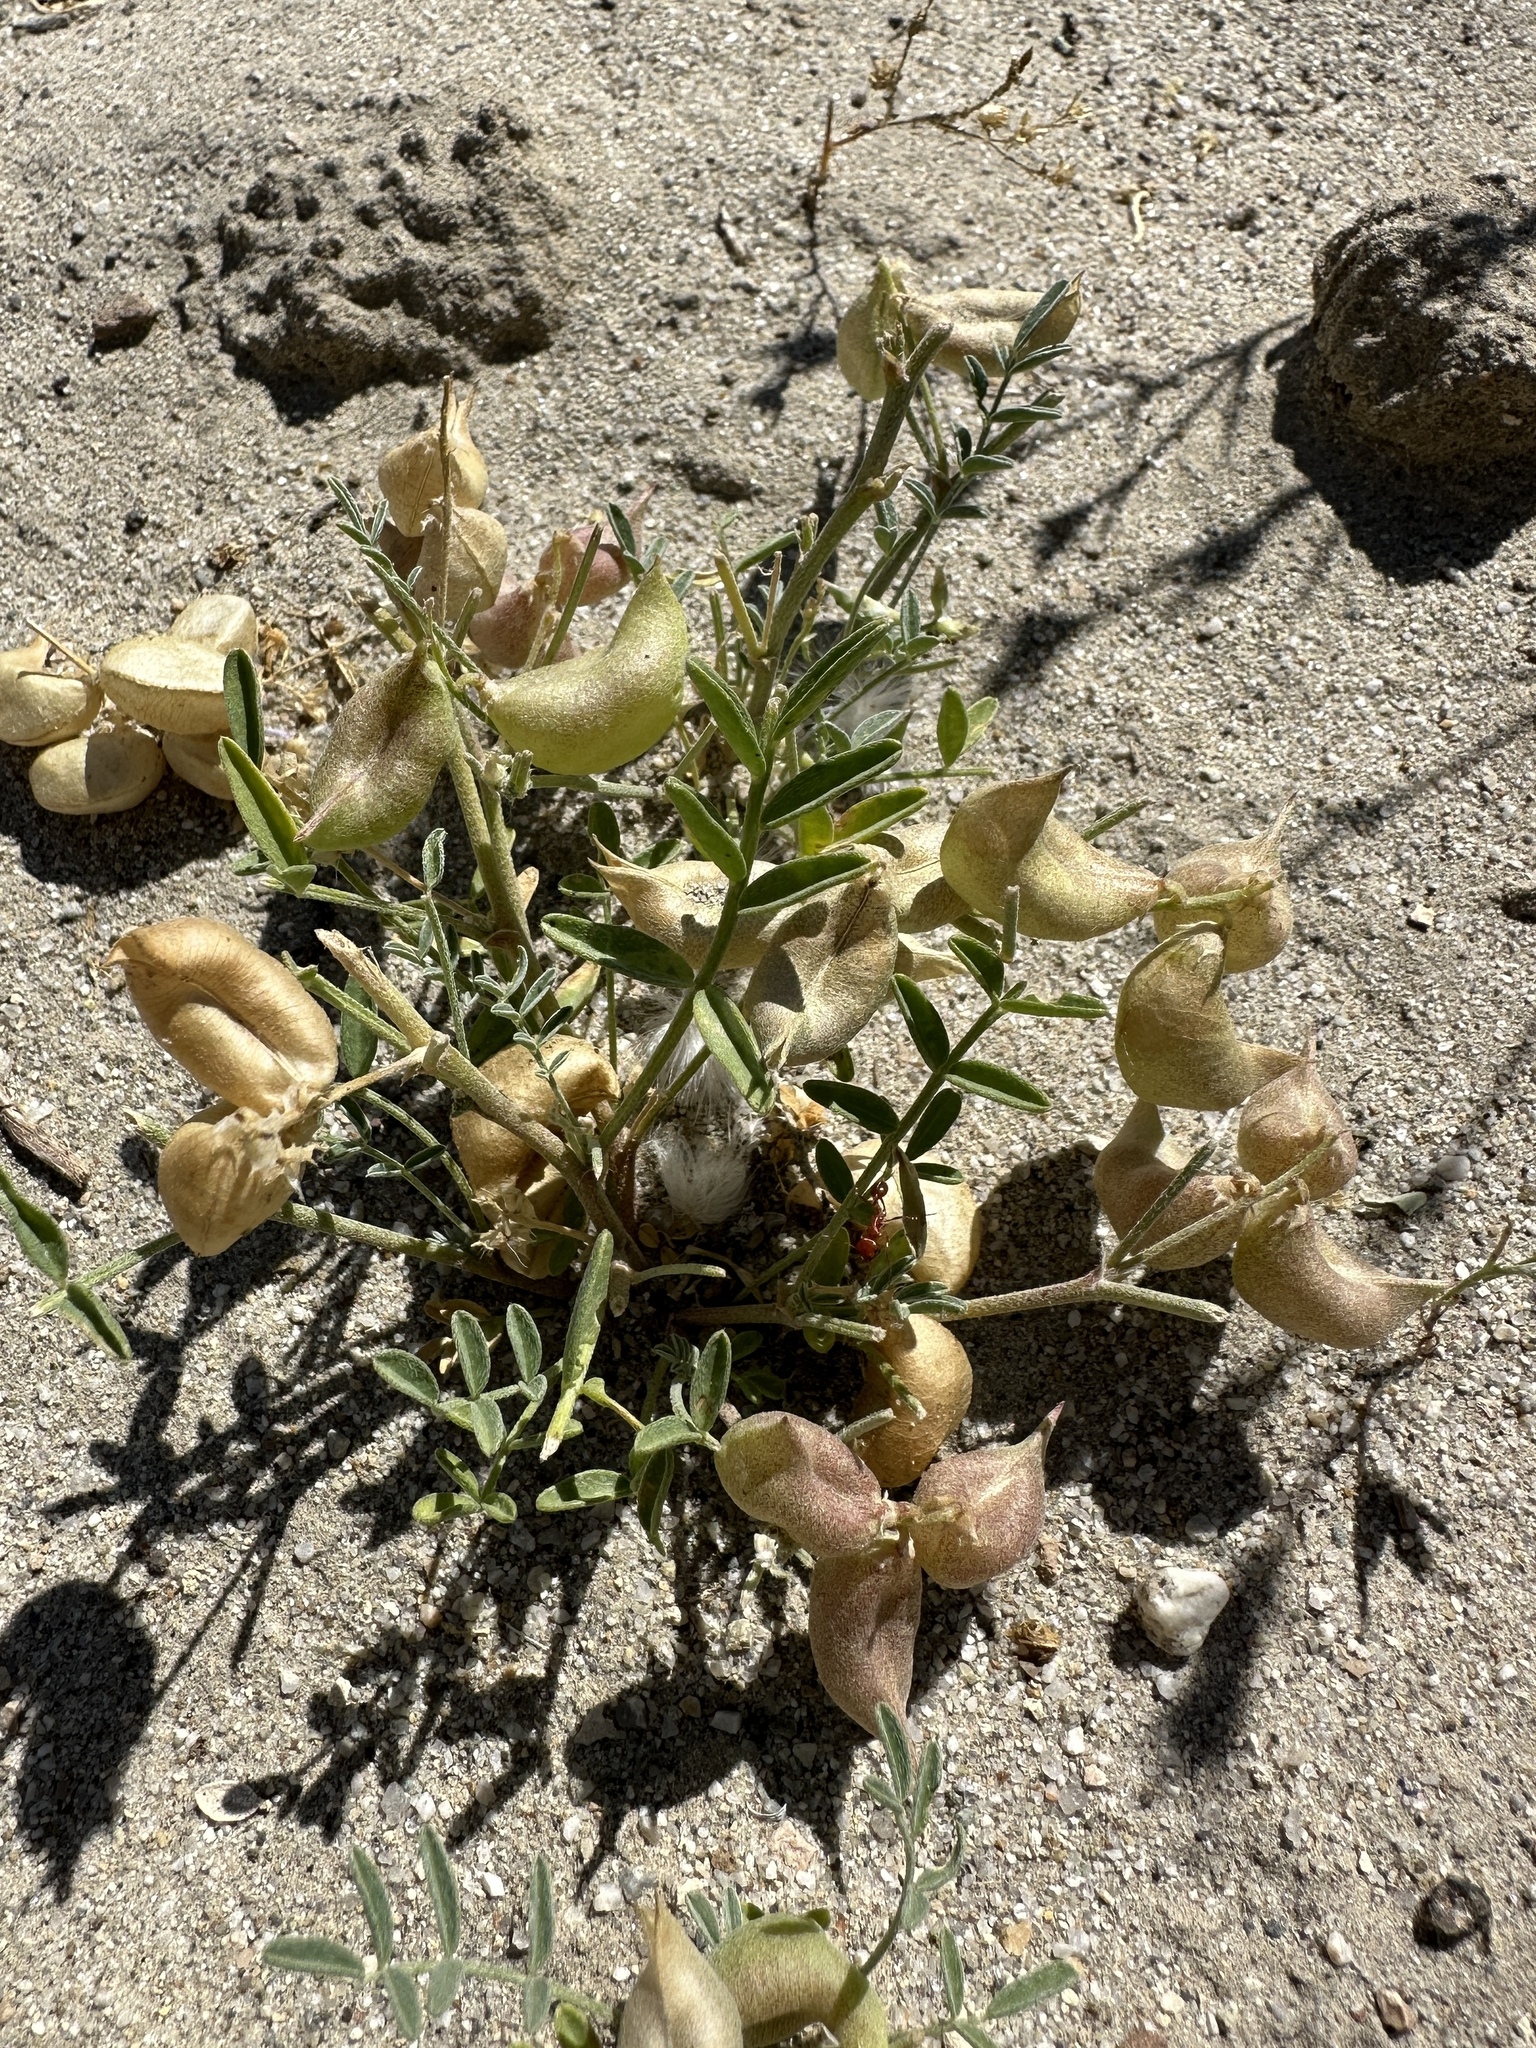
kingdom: Plantae
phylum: Tracheophyta
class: Magnoliopsida
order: Fabales
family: Fabaceae
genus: Astragalus
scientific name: Astragalus geyeri
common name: Geyer's milkvetch
